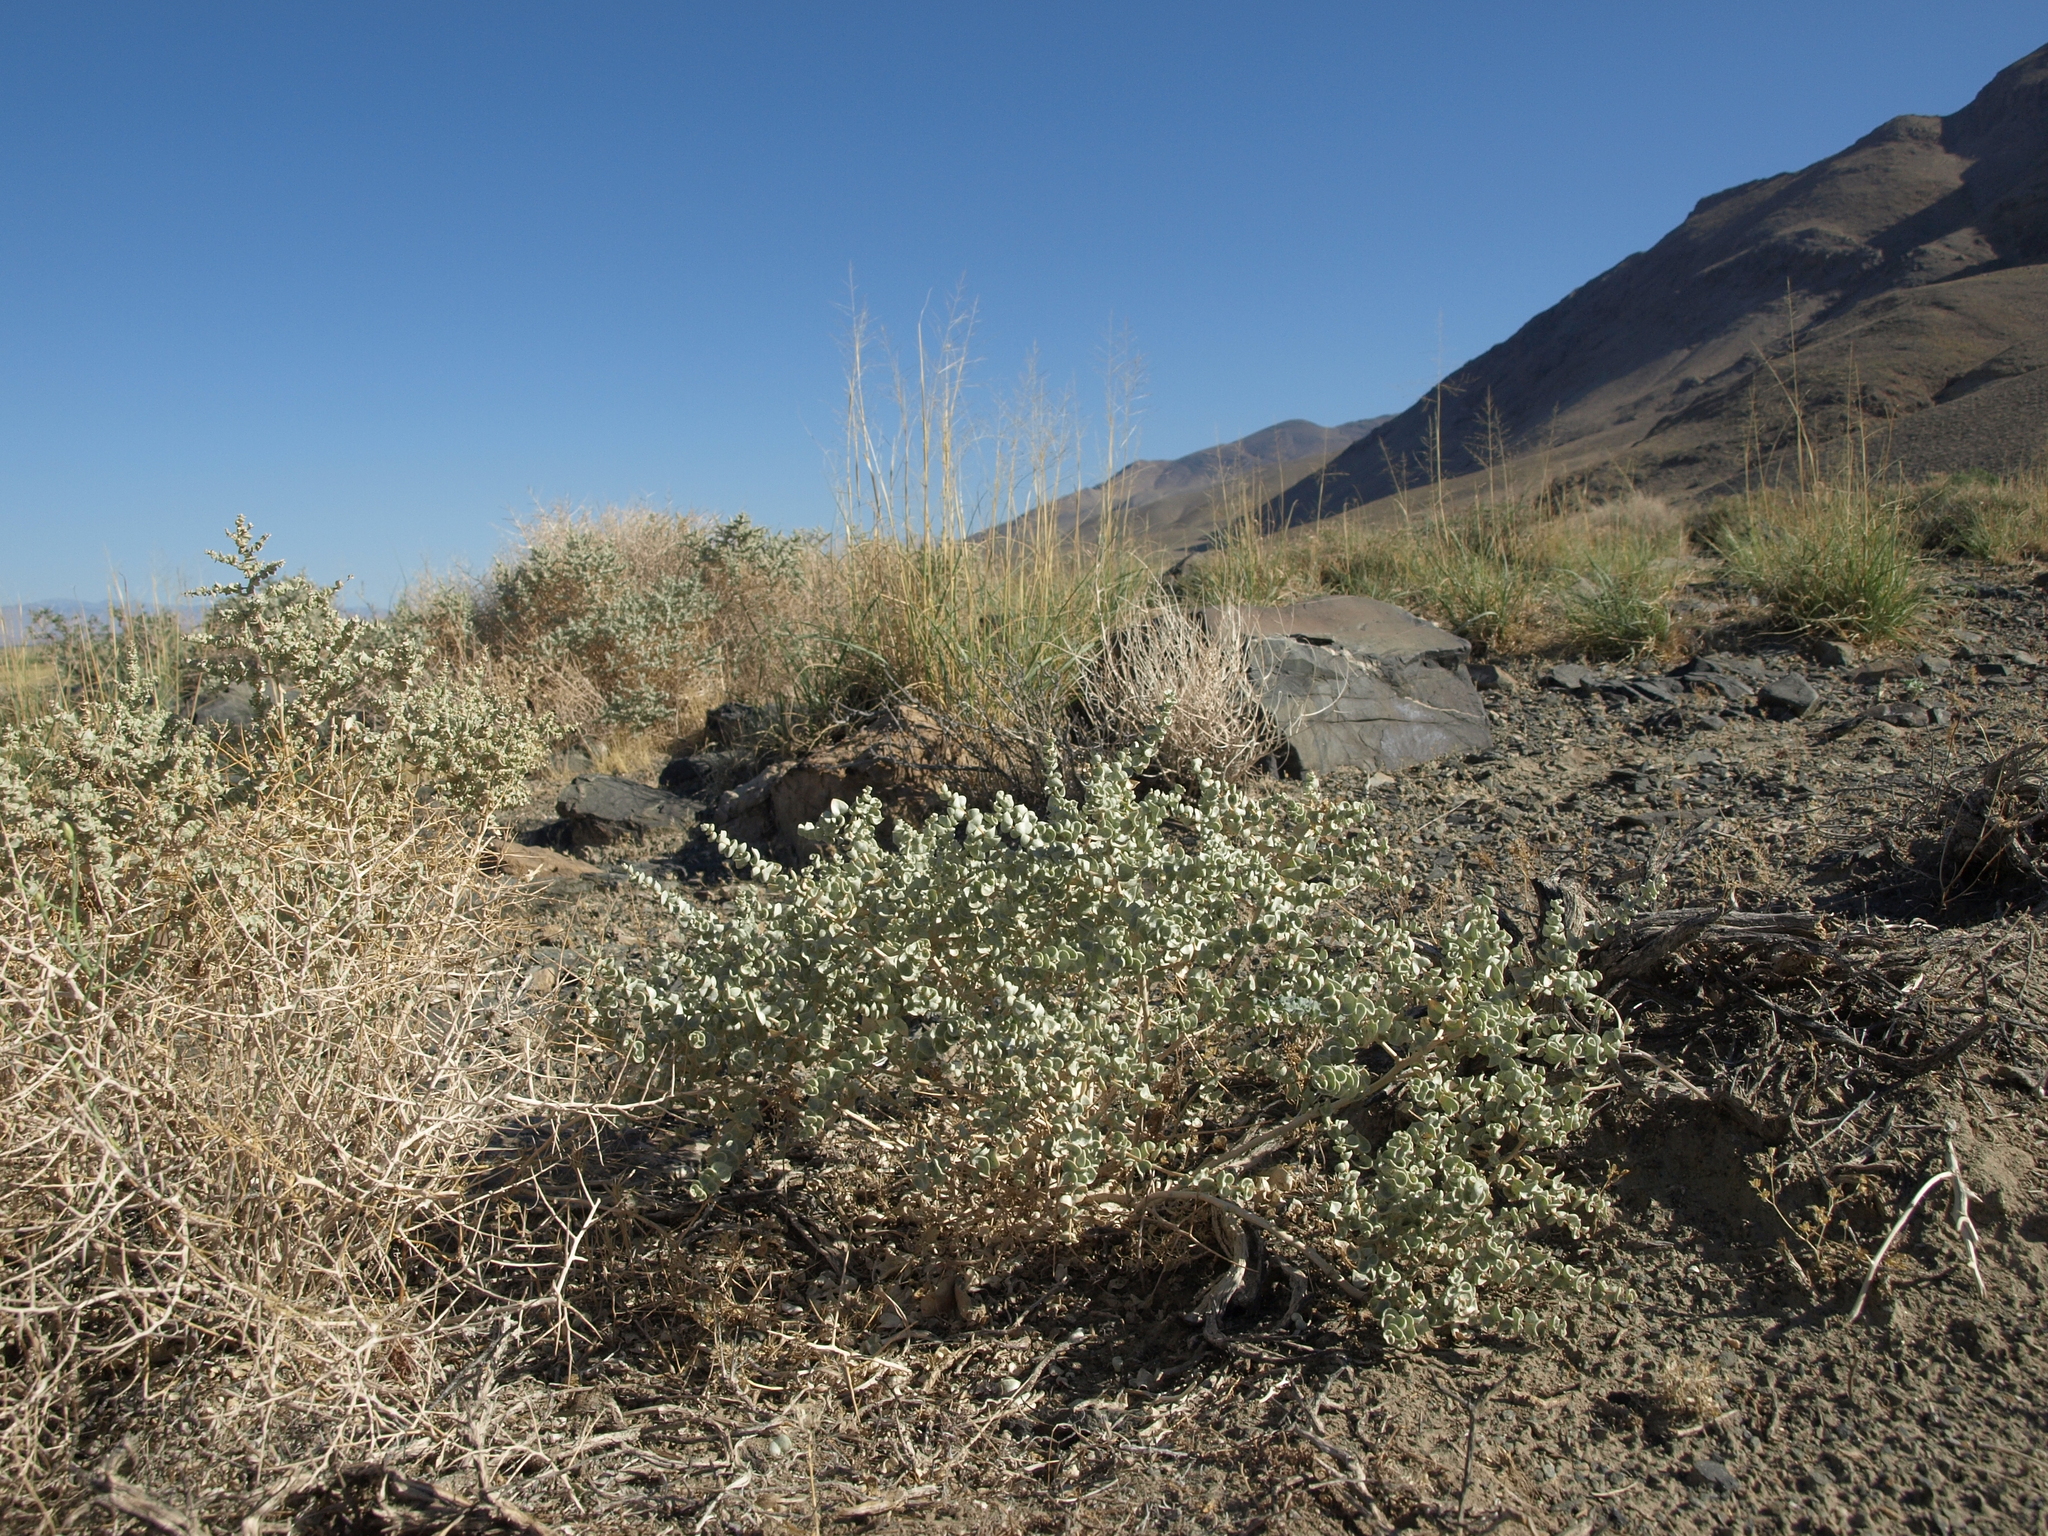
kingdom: Plantae
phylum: Tracheophyta
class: Magnoliopsida
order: Caryophyllales
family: Amaranthaceae
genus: Atriplex
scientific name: Atriplex parryi
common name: Parry's saltbush
